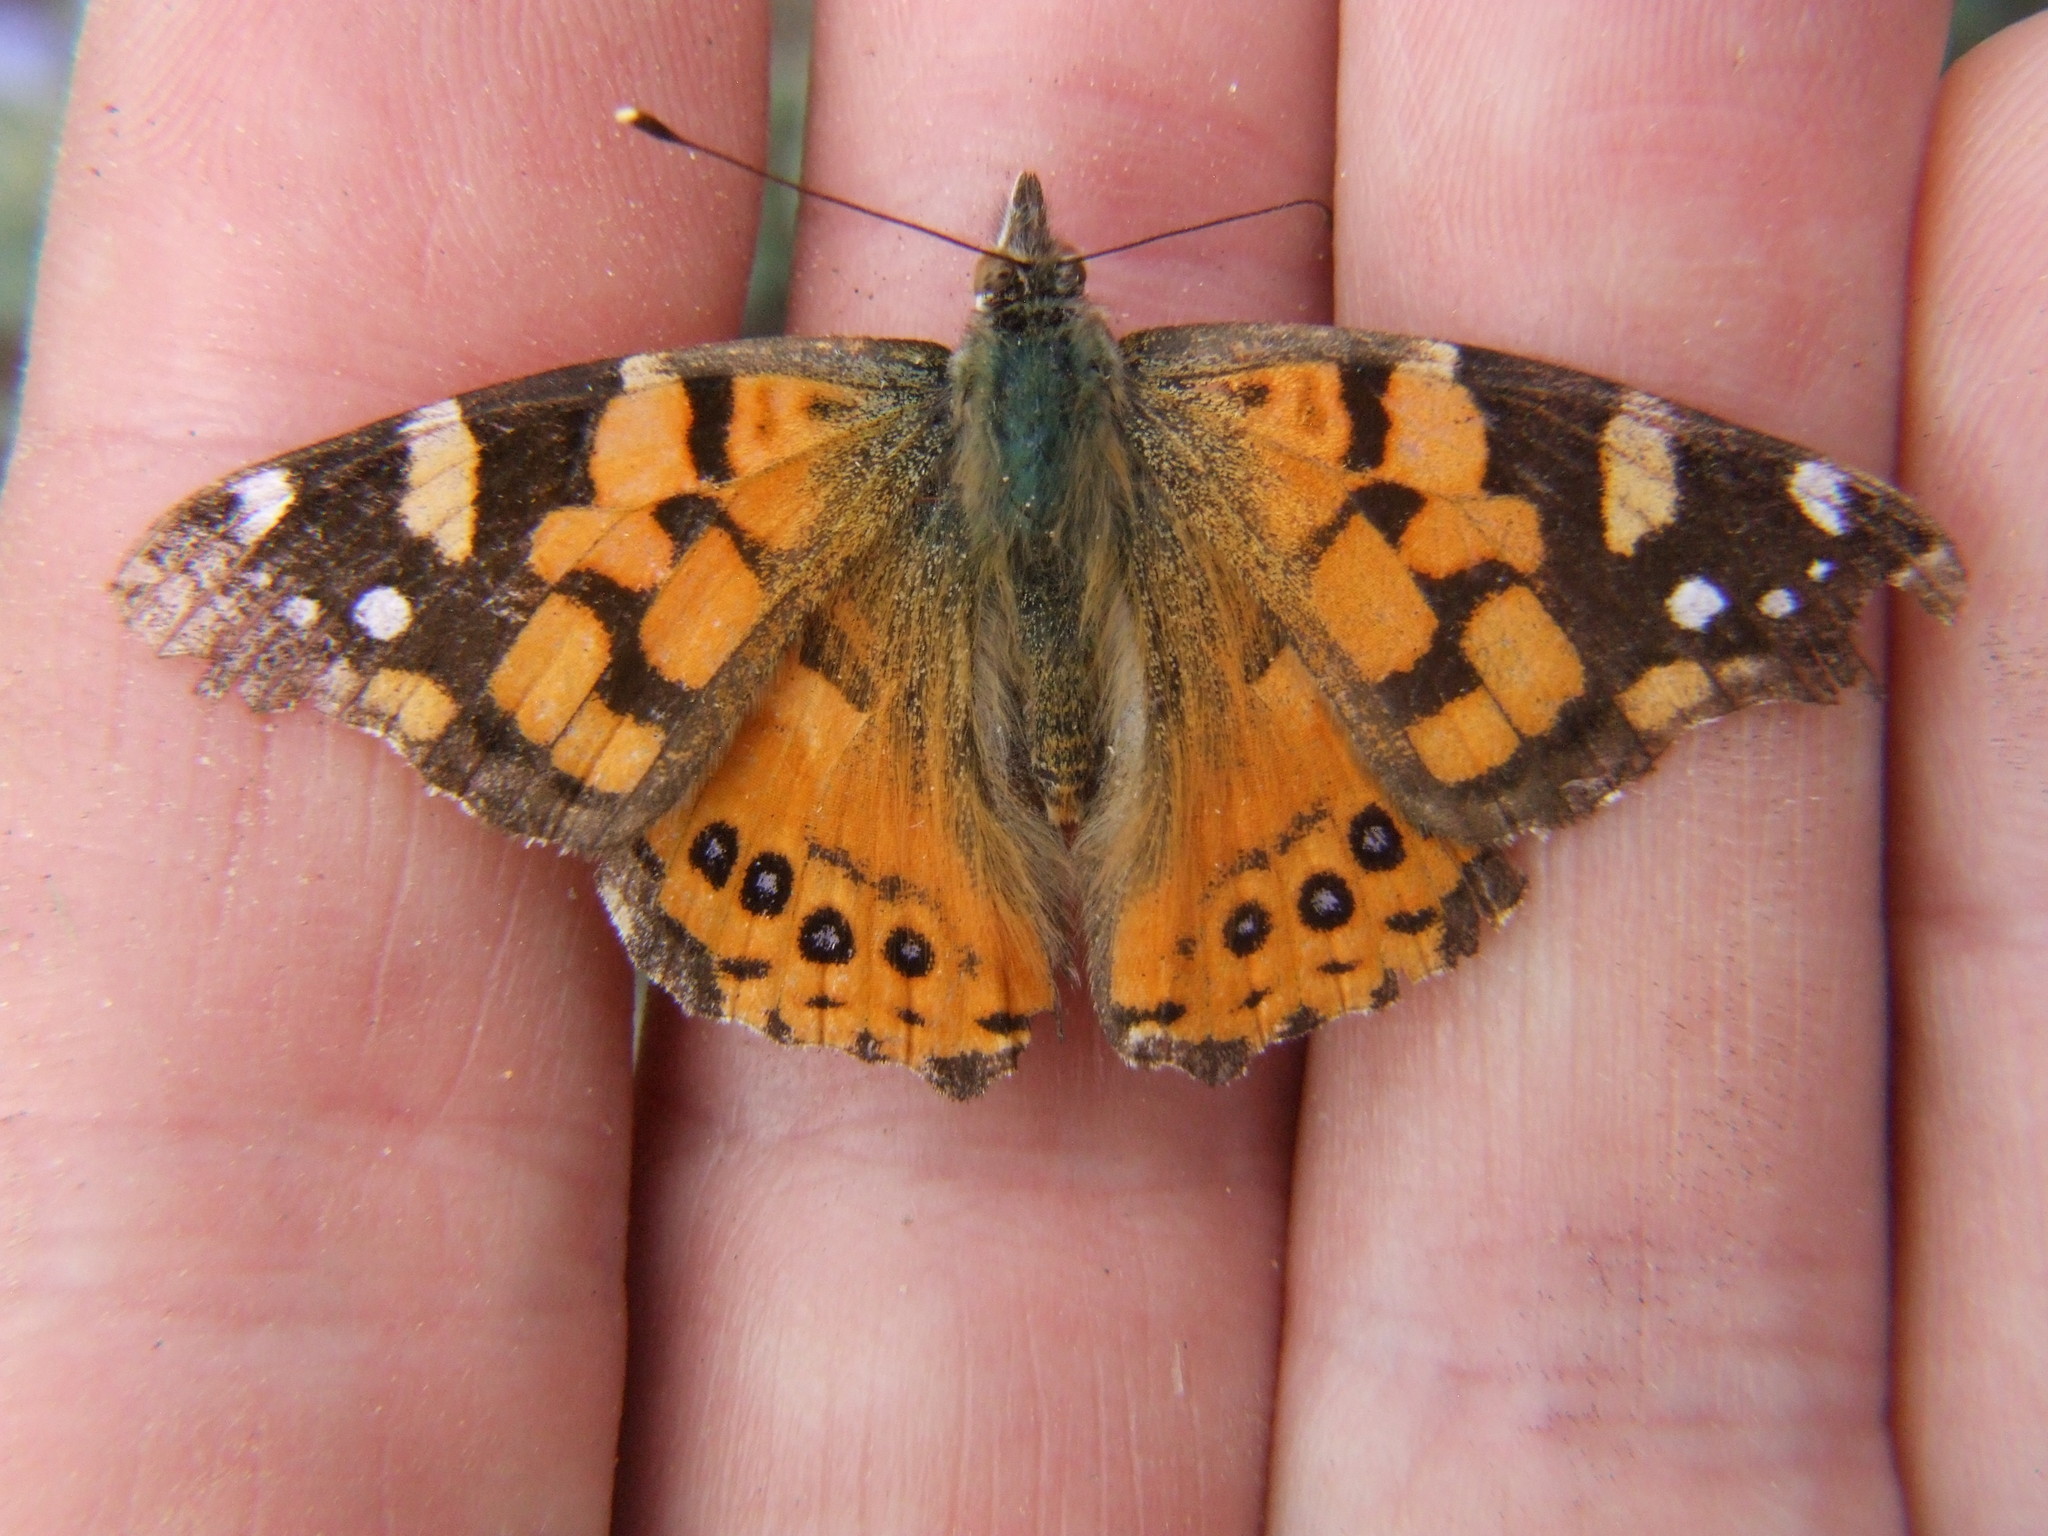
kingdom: Animalia
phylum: Arthropoda
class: Insecta
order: Lepidoptera
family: Nymphalidae
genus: Vanessa
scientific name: Vanessa carye
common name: Subtropical lady
